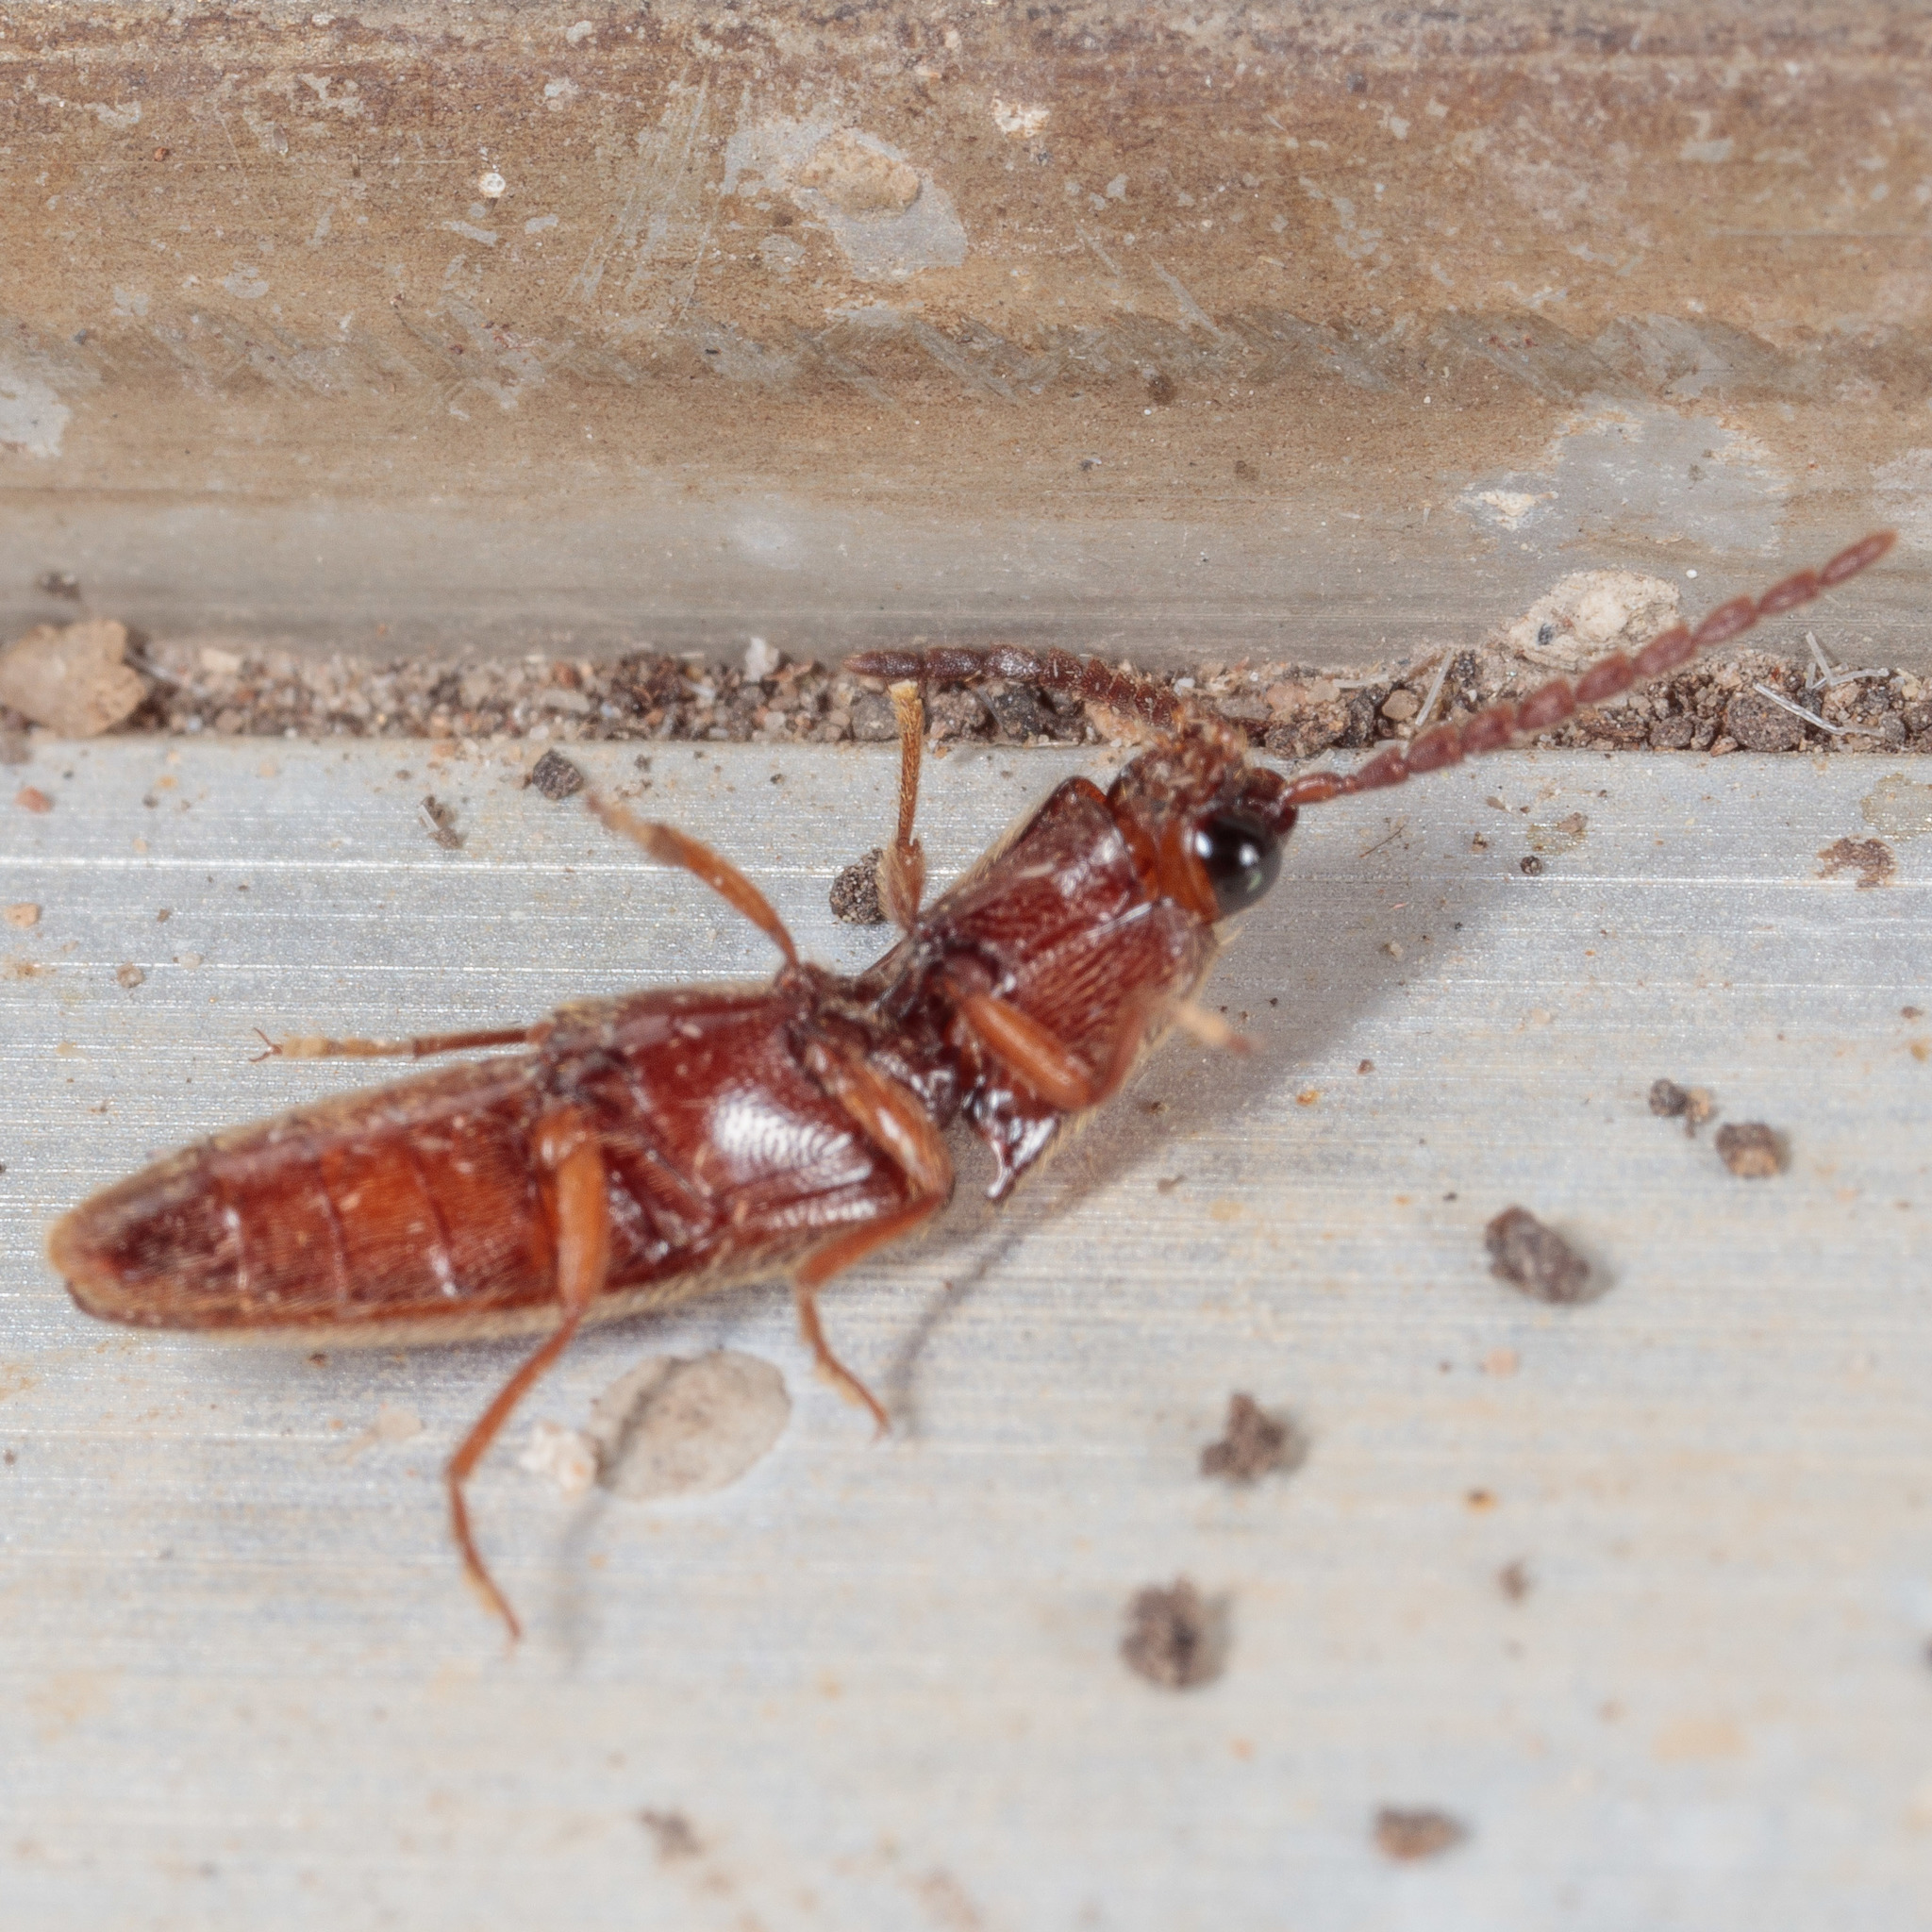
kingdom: Animalia
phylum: Arthropoda
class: Insecta
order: Coleoptera
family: Elateridae
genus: Dipropus
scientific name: Dipropus
